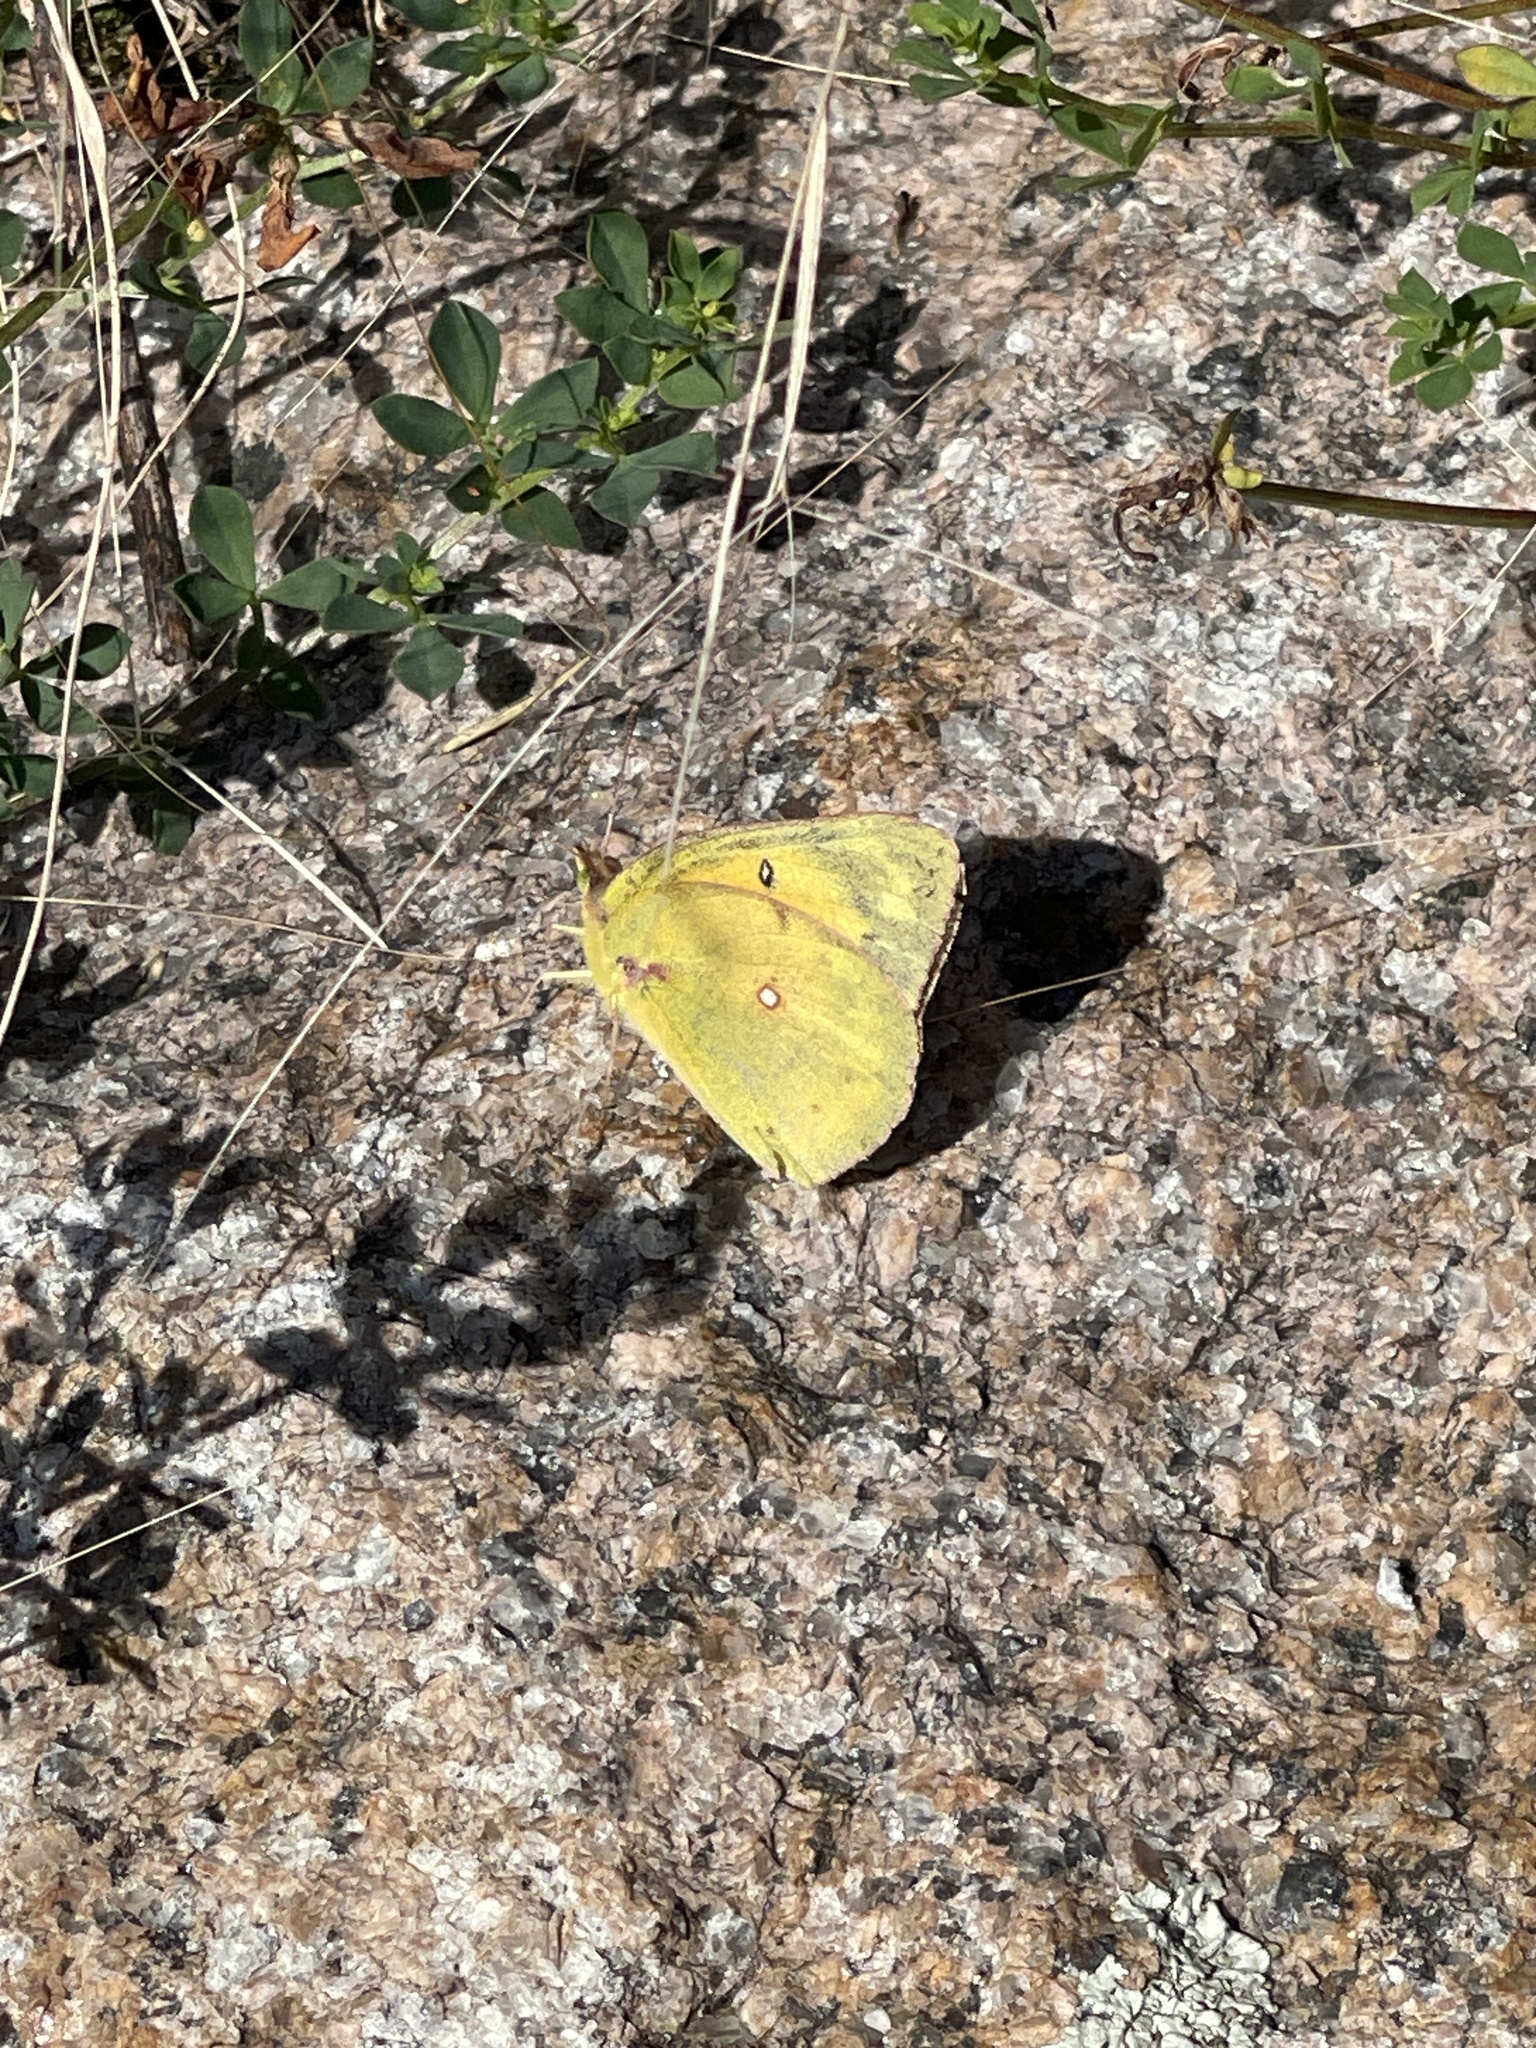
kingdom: Animalia
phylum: Arthropoda
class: Insecta
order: Lepidoptera
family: Pieridae
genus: Colias
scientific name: Colias eurytheme
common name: Alfalfa butterfly
